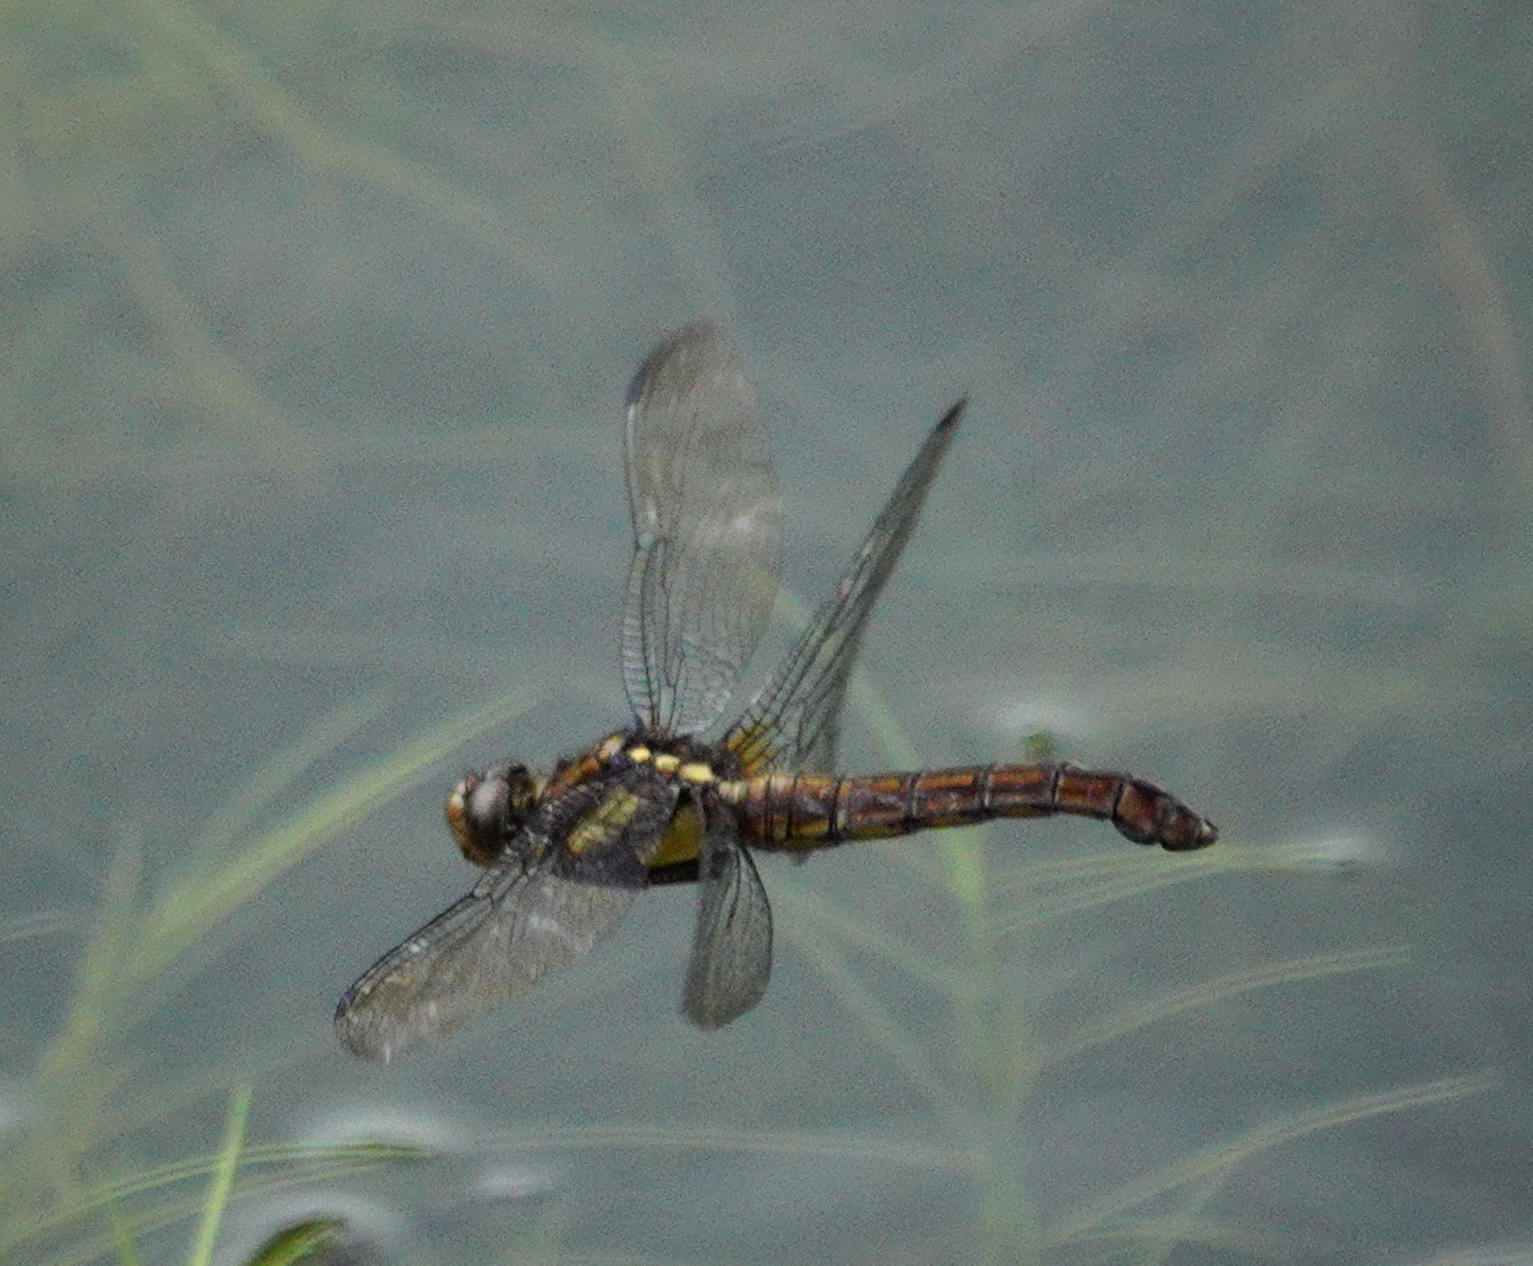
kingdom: Animalia
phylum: Arthropoda
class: Insecta
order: Odonata
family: Libellulidae
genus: Orthetrum
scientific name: Orthetrum triangulare
